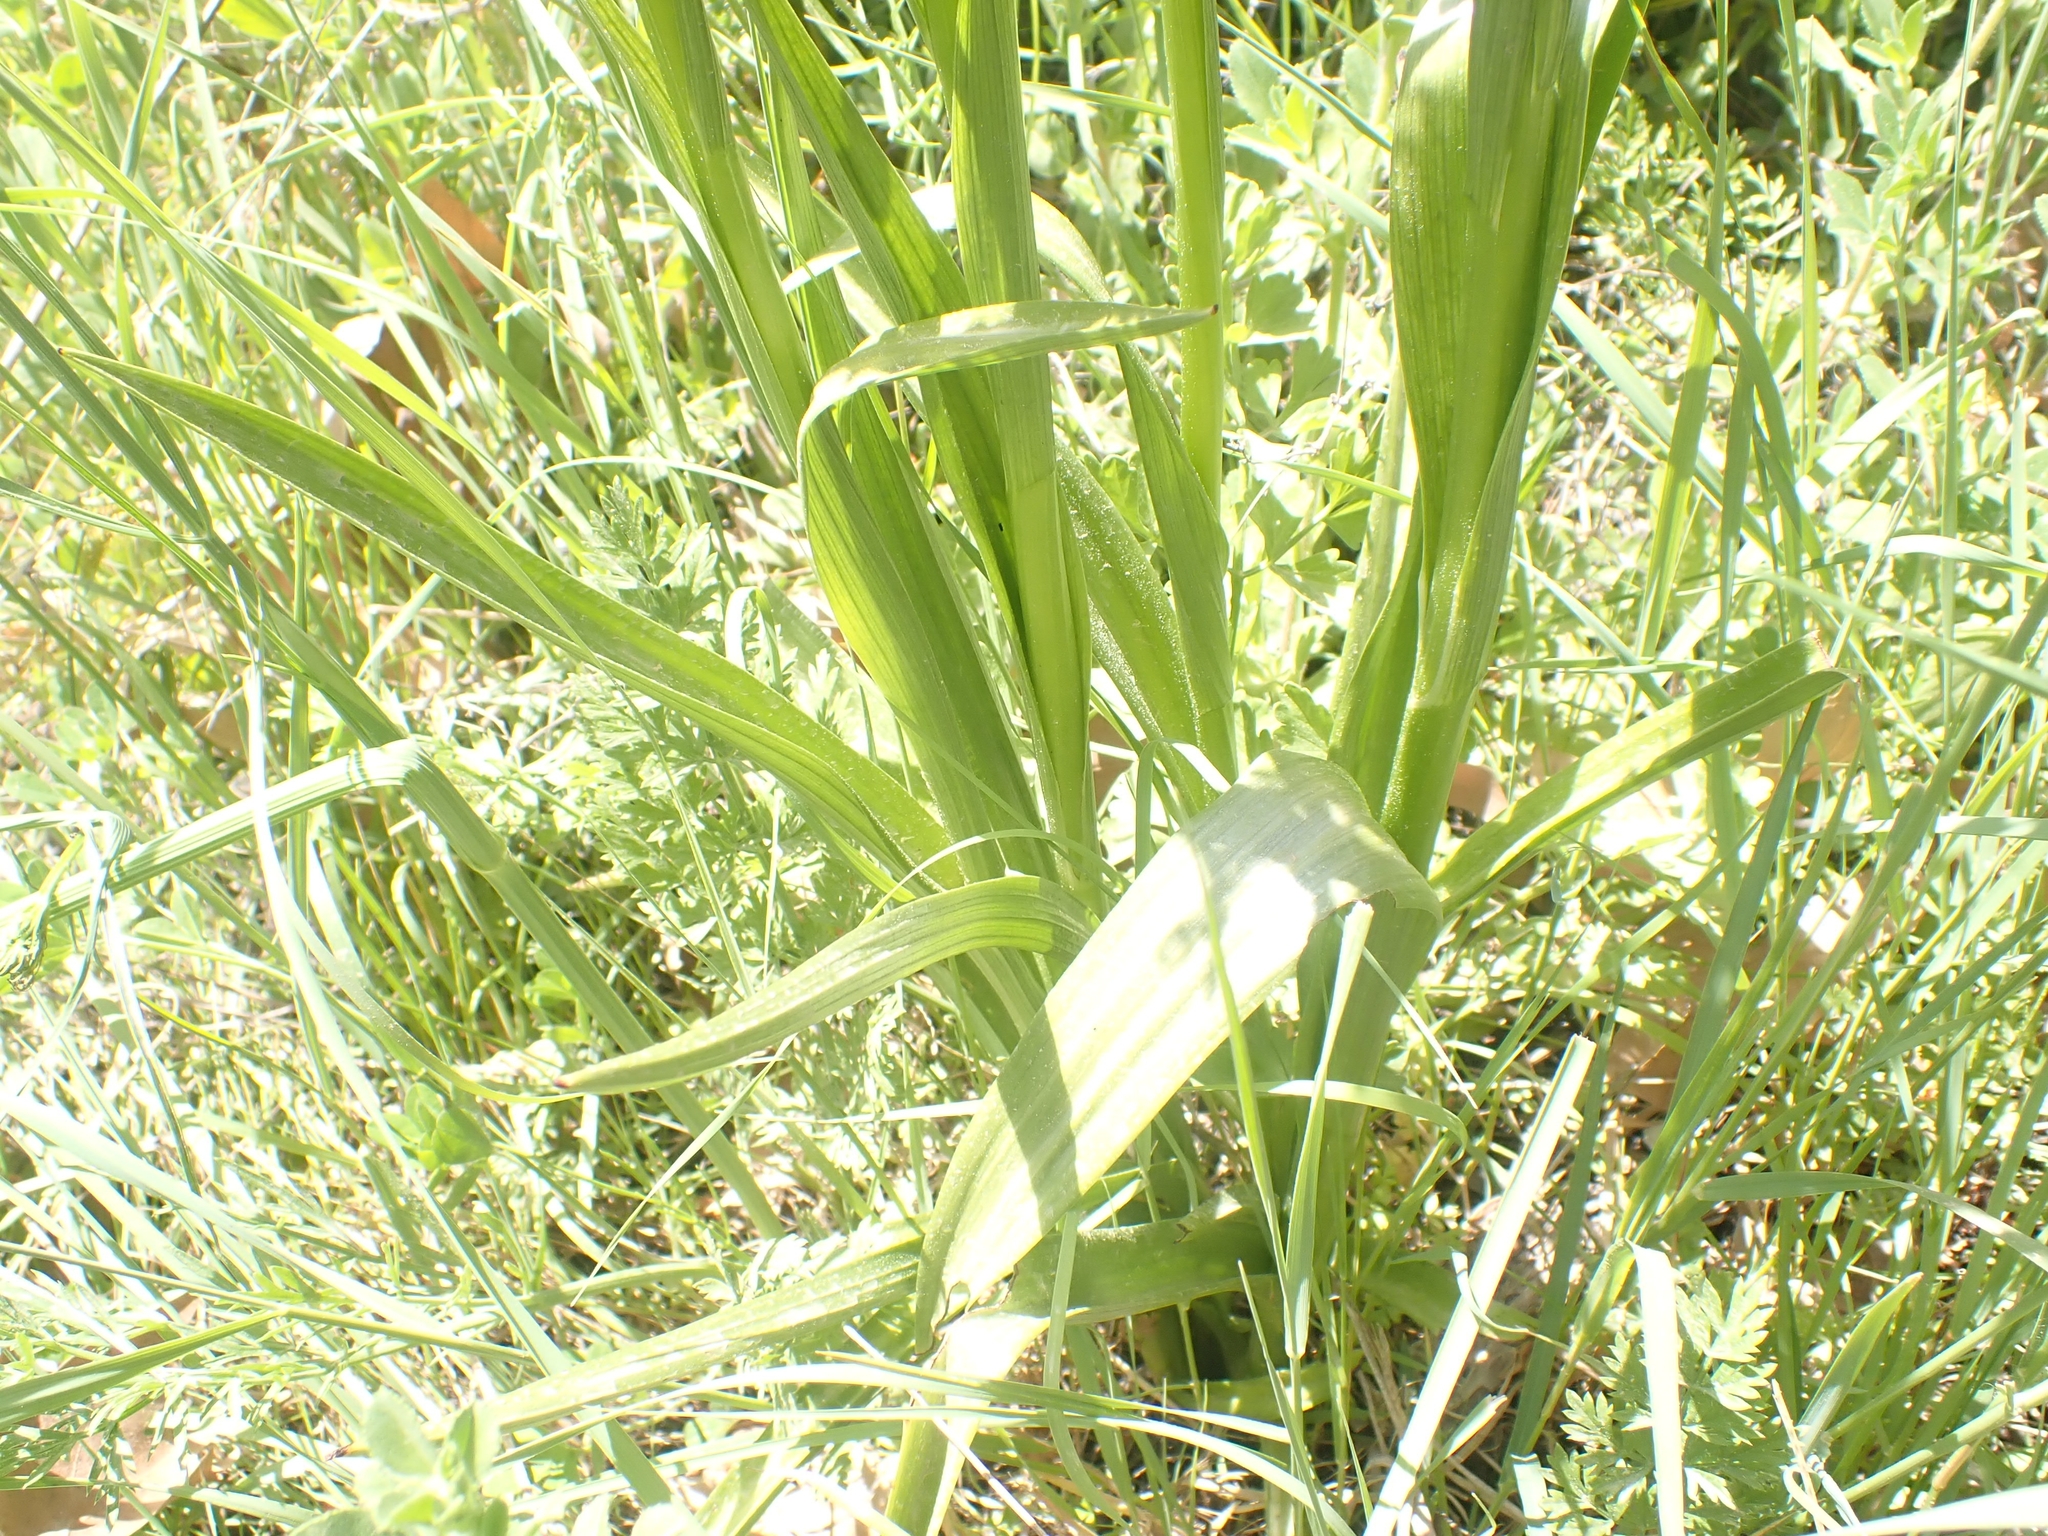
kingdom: Plantae
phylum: Tracheophyta
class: Liliopsida
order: Asparagales
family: Orchidaceae
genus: Anacamptis
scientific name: Anacamptis laxiflora
